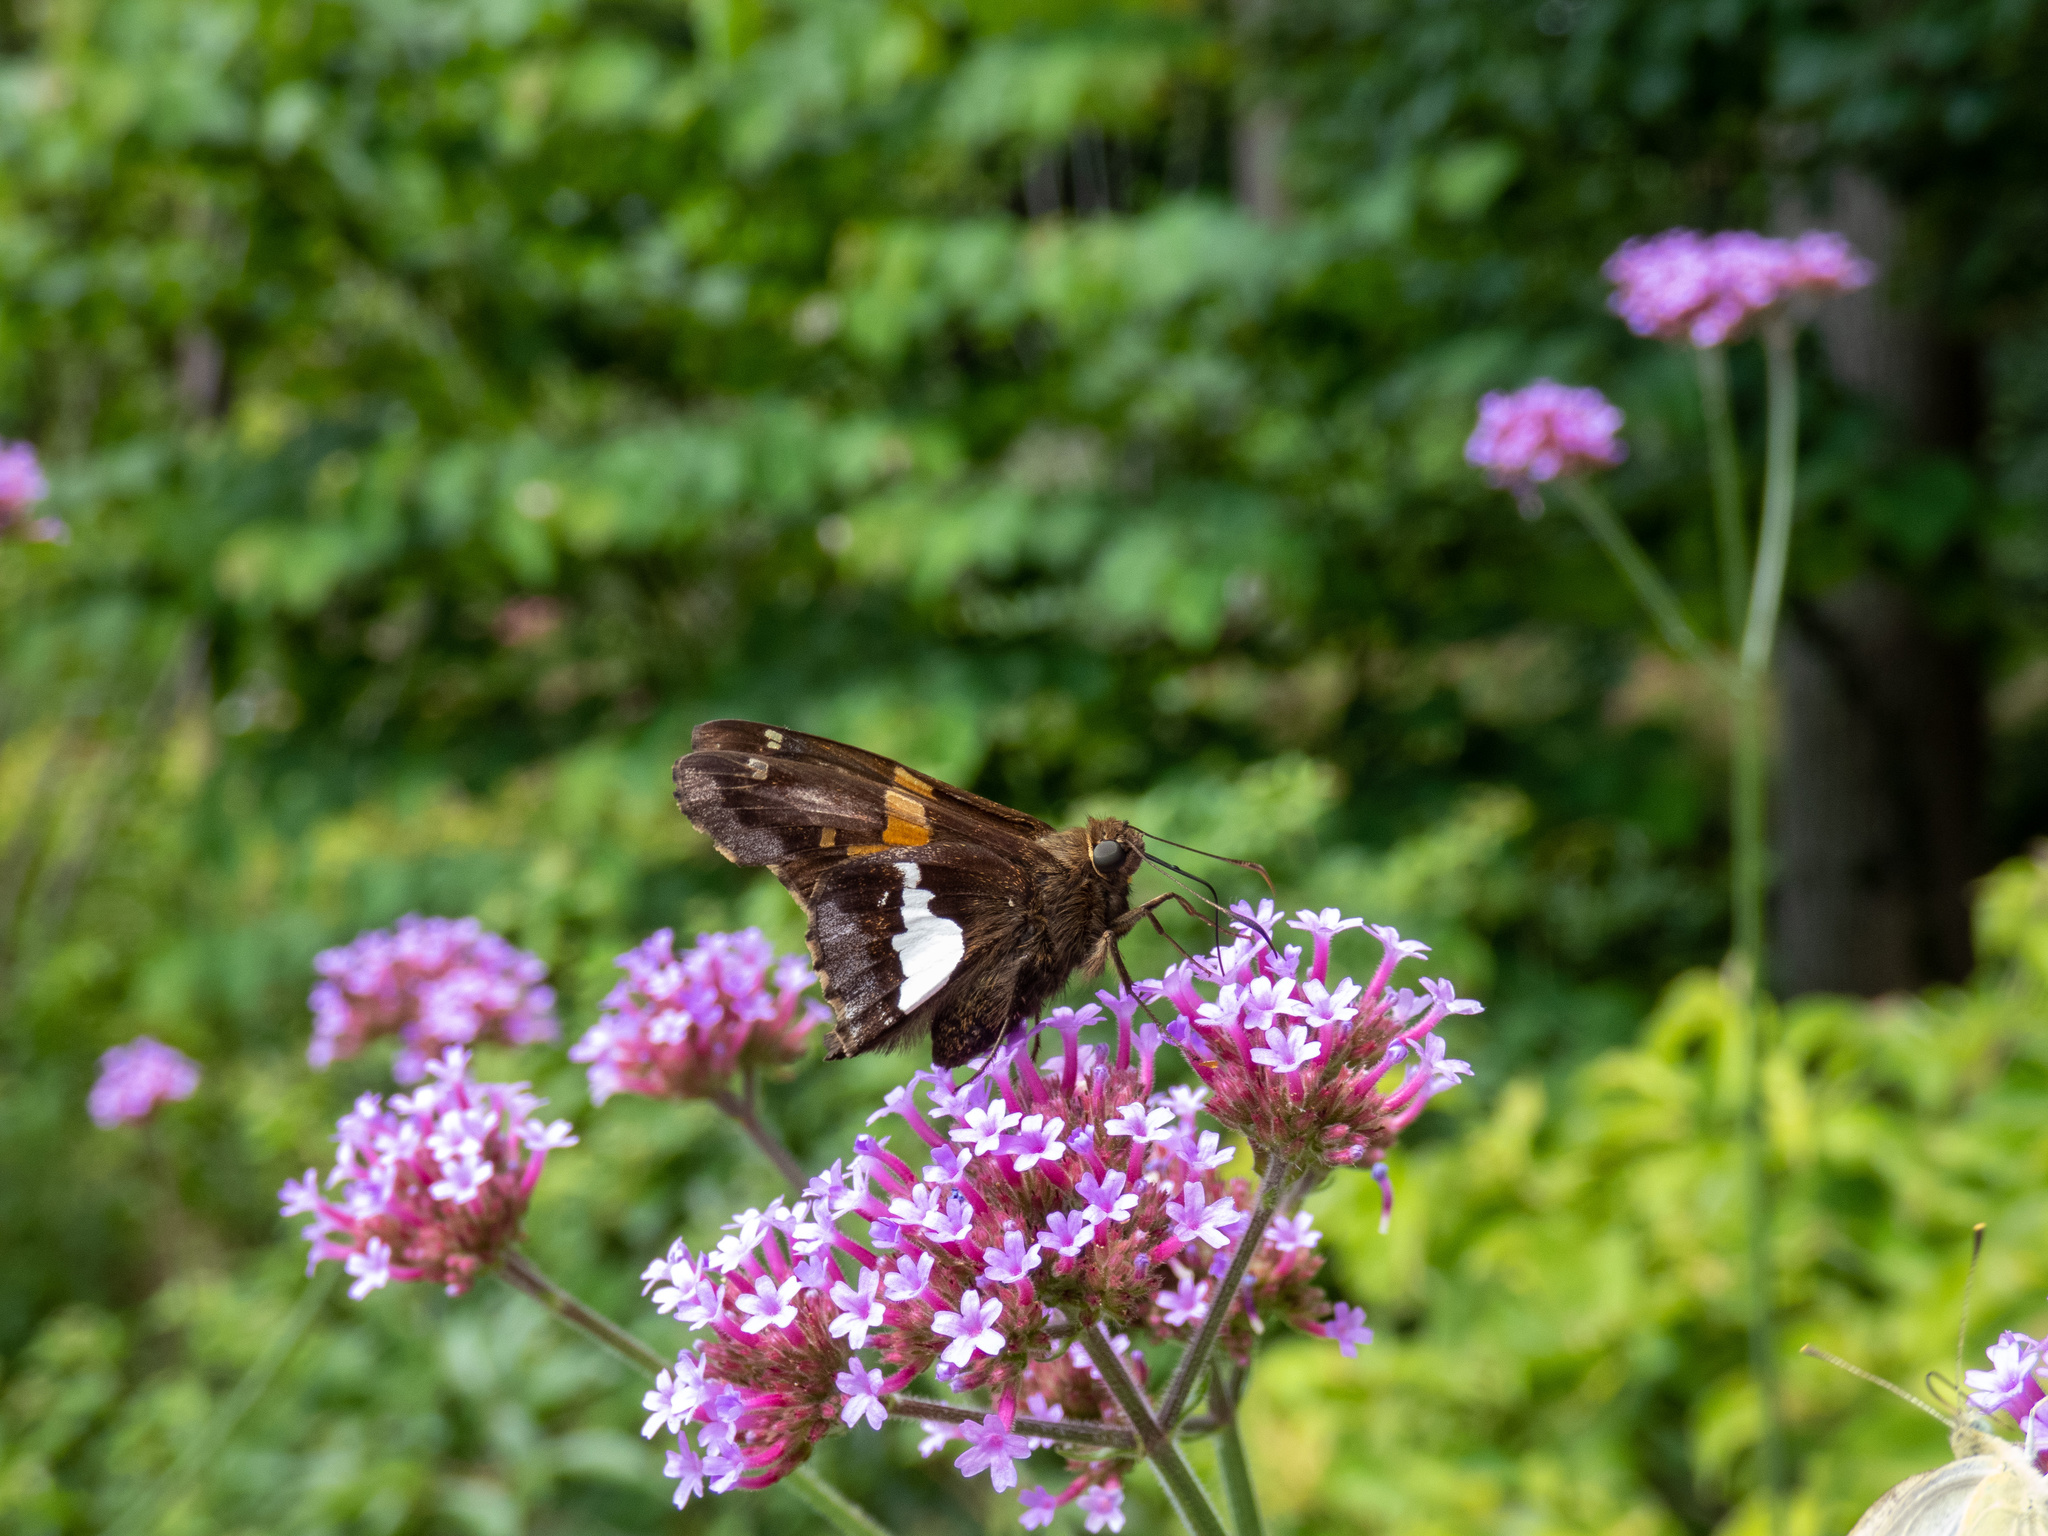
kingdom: Animalia
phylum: Arthropoda
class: Insecta
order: Lepidoptera
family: Hesperiidae
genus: Epargyreus
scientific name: Epargyreus clarus
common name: Silver-spotted skipper
